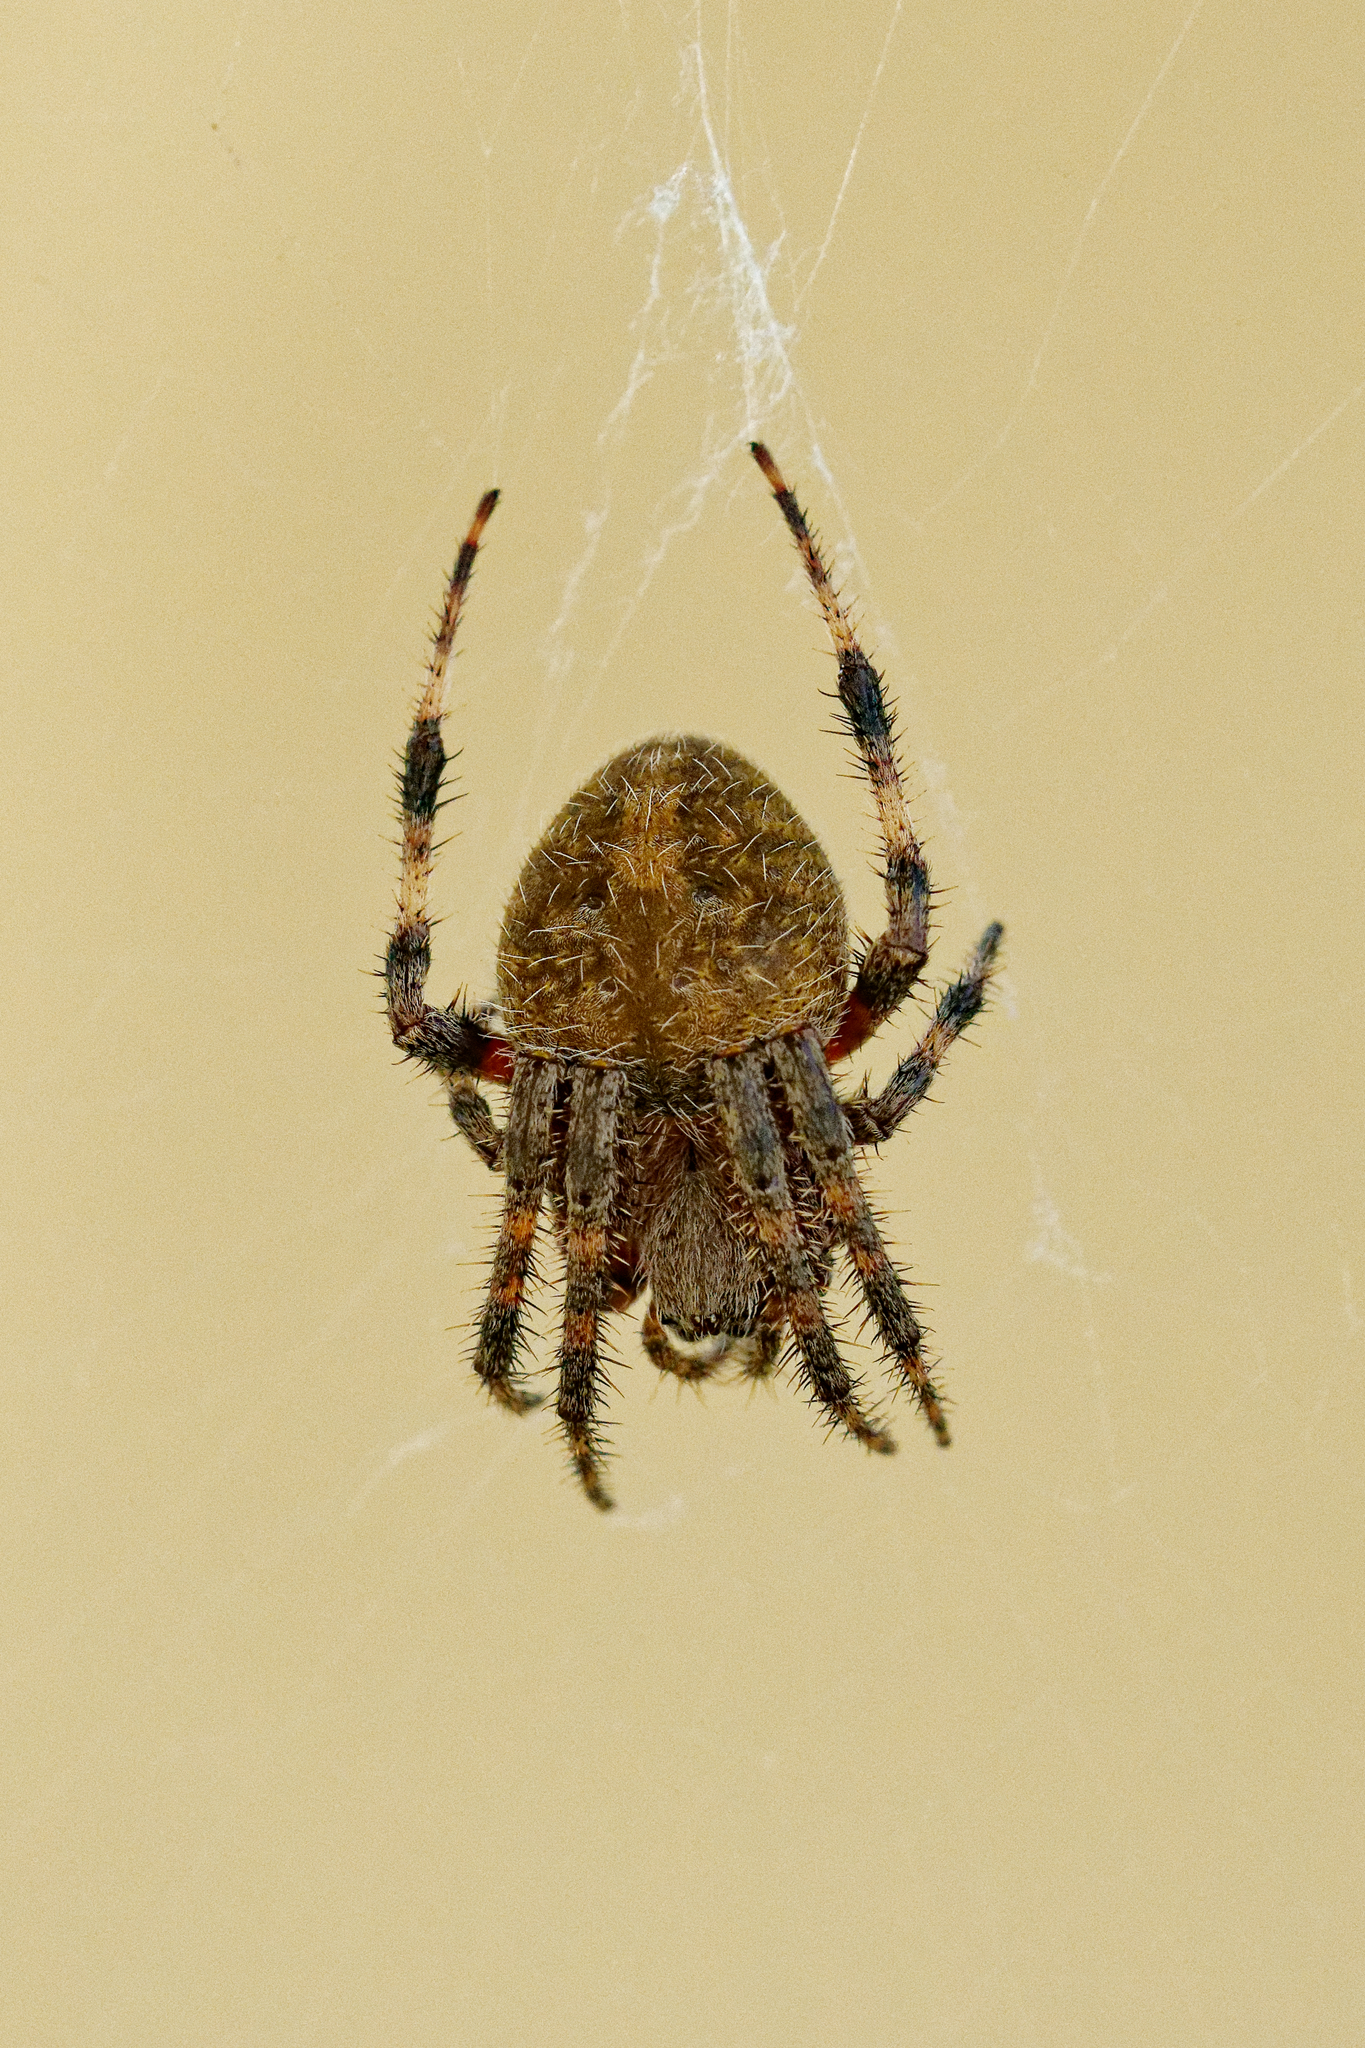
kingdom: Animalia
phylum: Arthropoda
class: Arachnida
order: Araneae
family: Araneidae
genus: Neoscona
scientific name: Neoscona crucifera
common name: Spotted orbweaver
